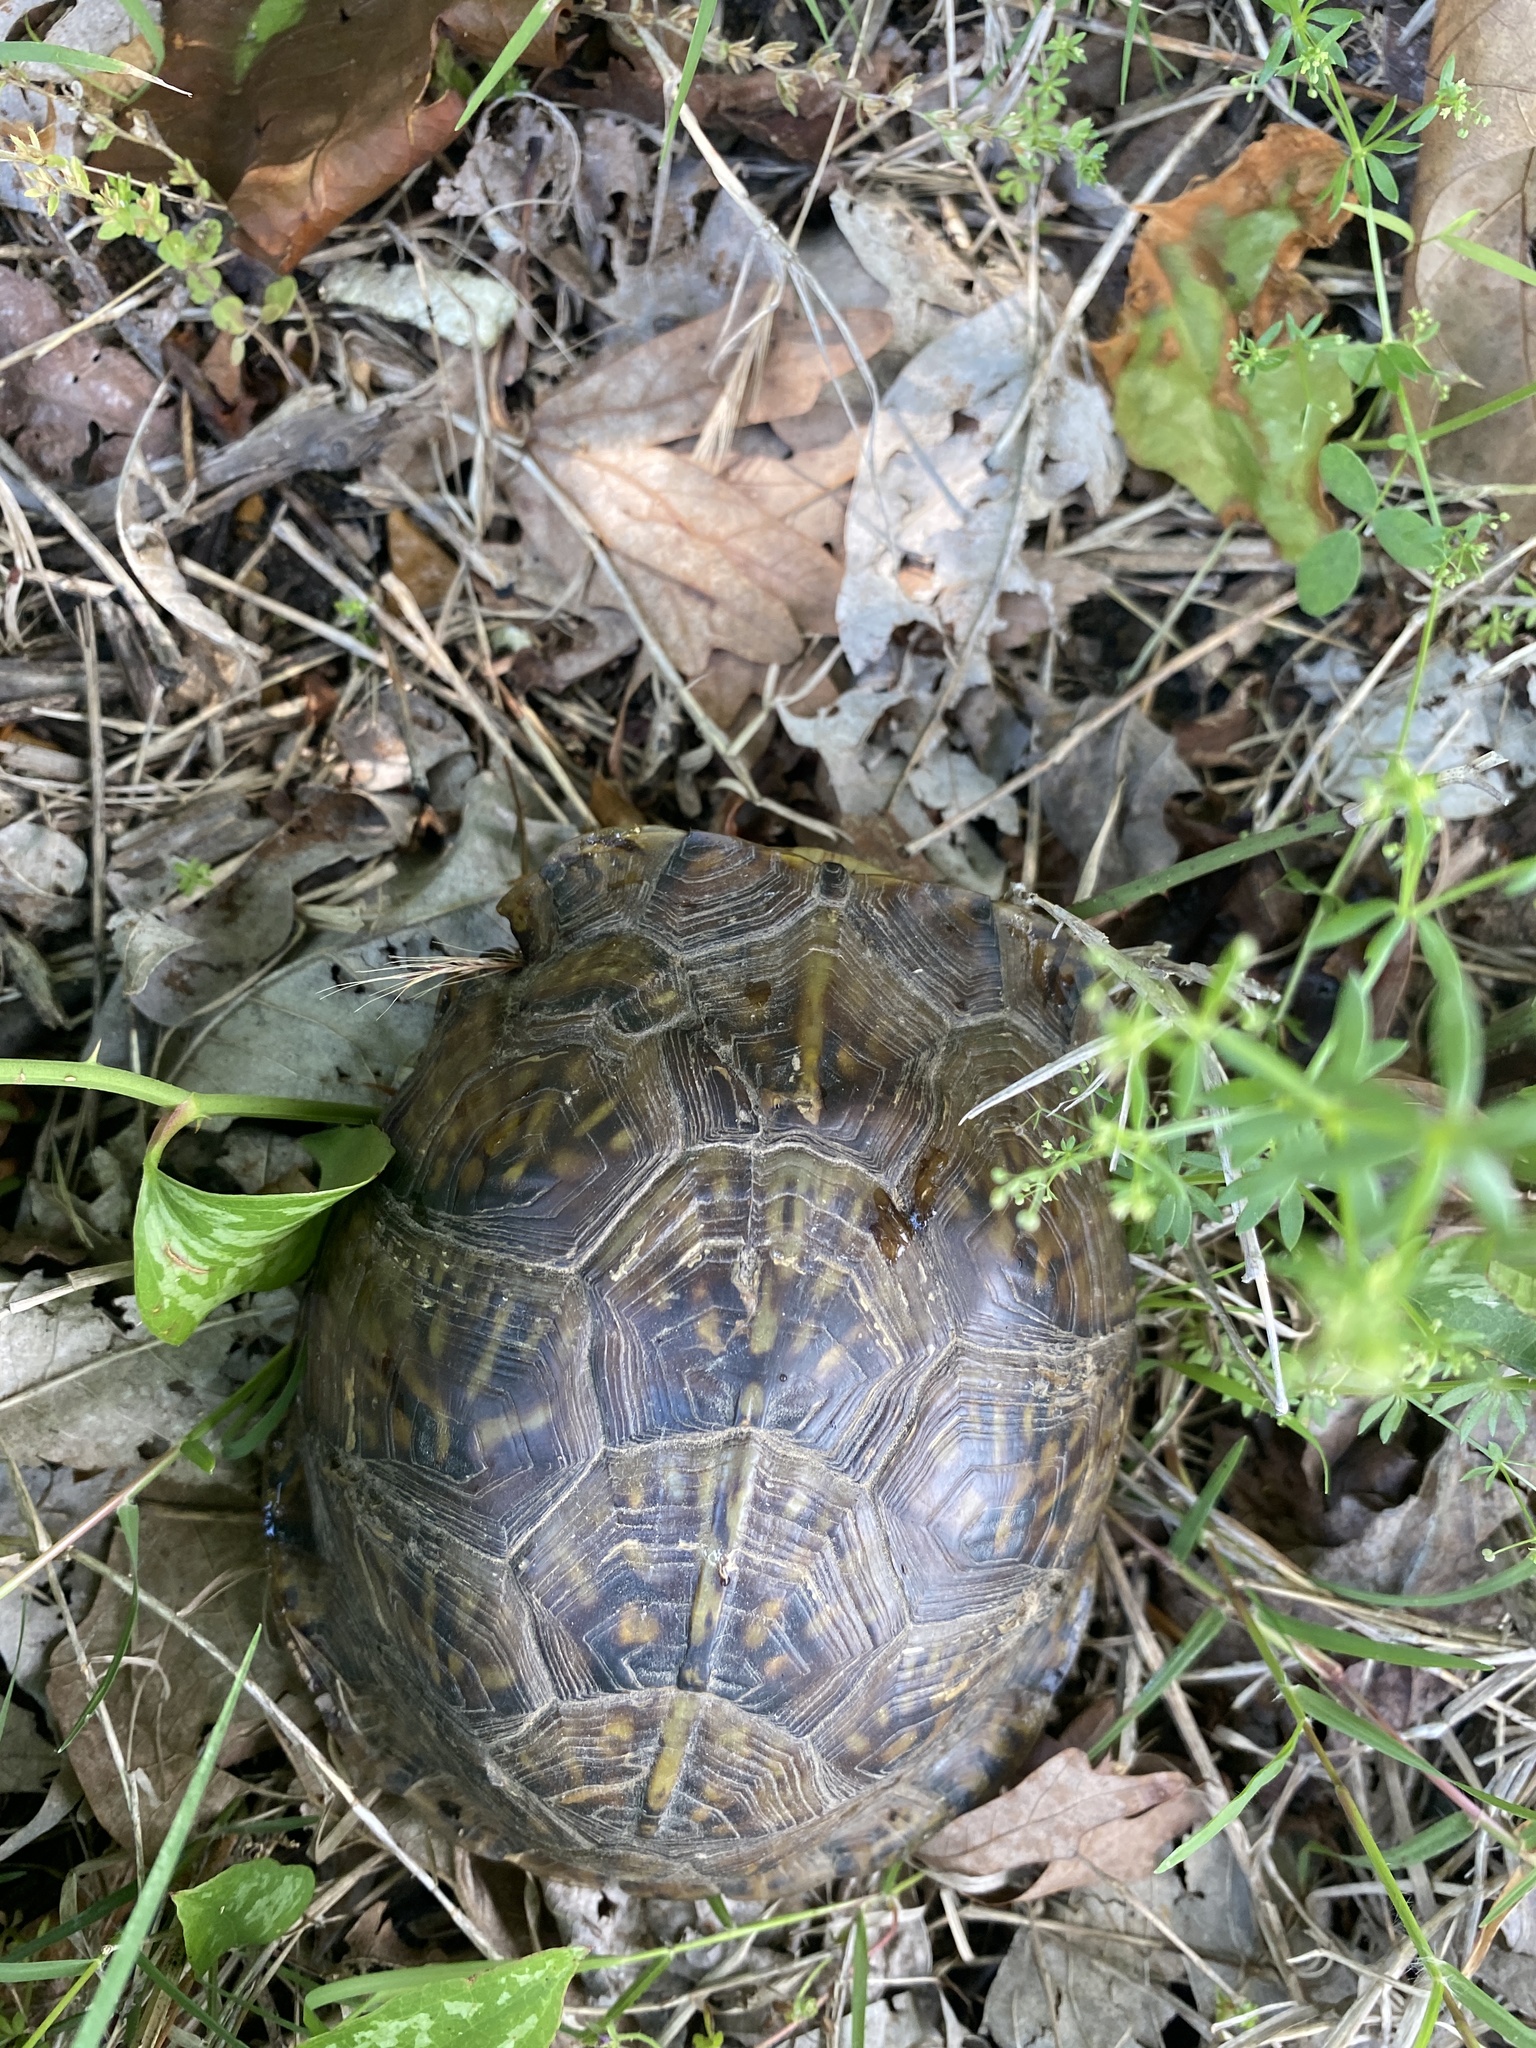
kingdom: Animalia
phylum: Chordata
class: Testudines
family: Emydidae
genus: Terrapene
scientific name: Terrapene carolina
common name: Common box turtle
